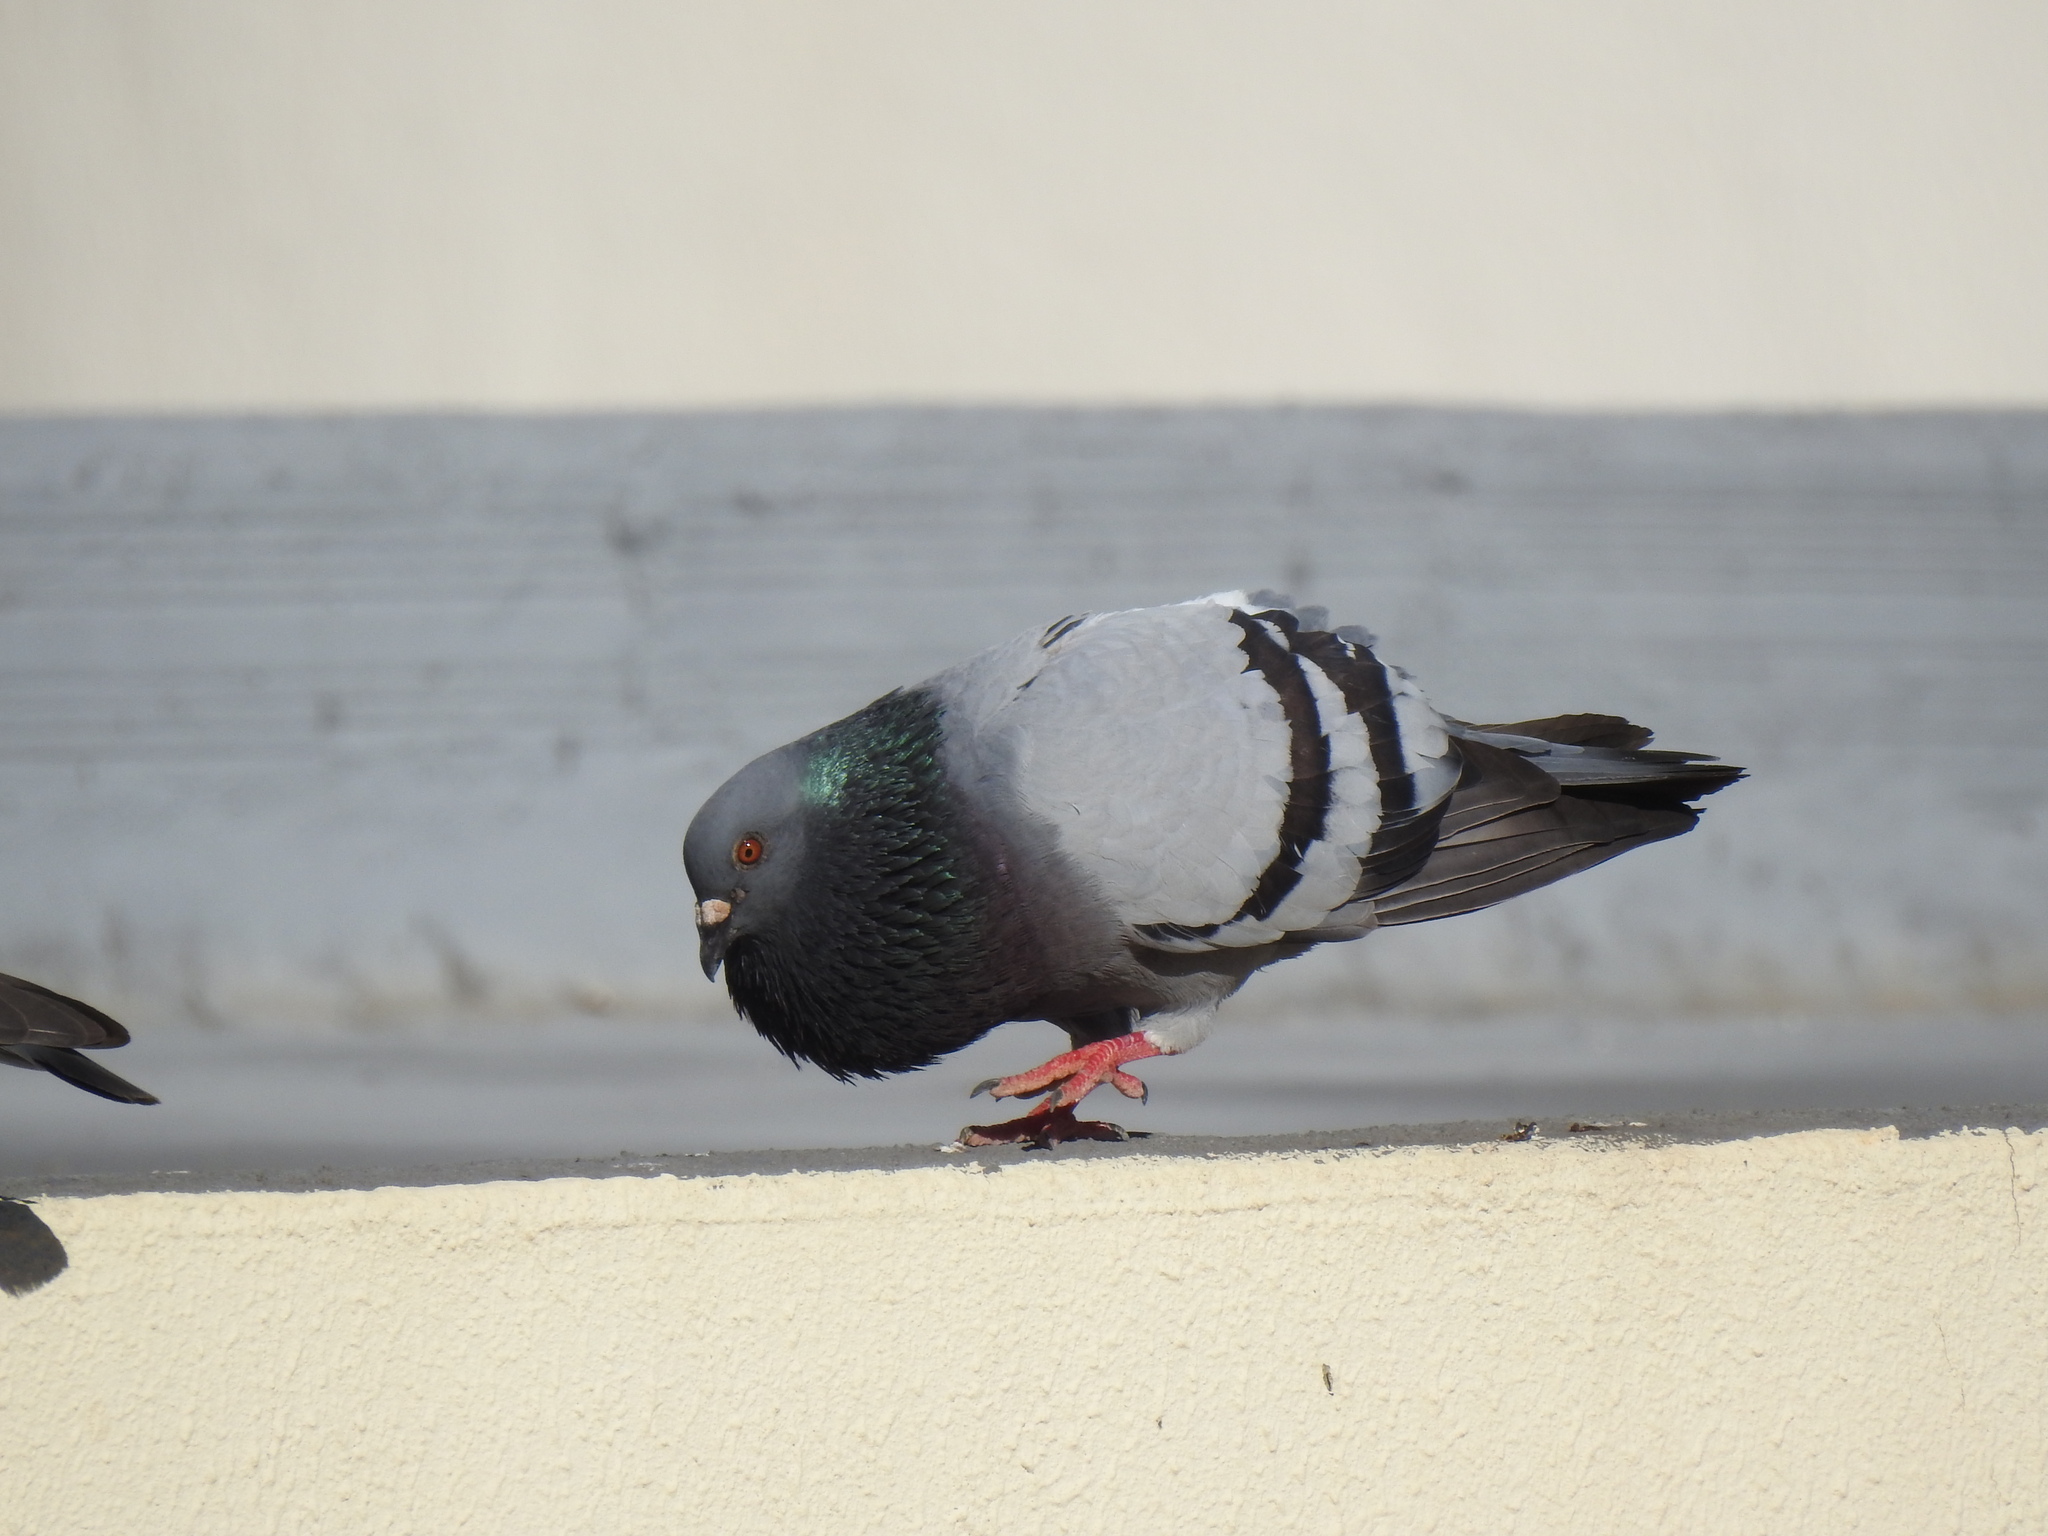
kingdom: Animalia
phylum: Chordata
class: Aves
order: Columbiformes
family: Columbidae
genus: Columba
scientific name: Columba livia
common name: Rock pigeon
